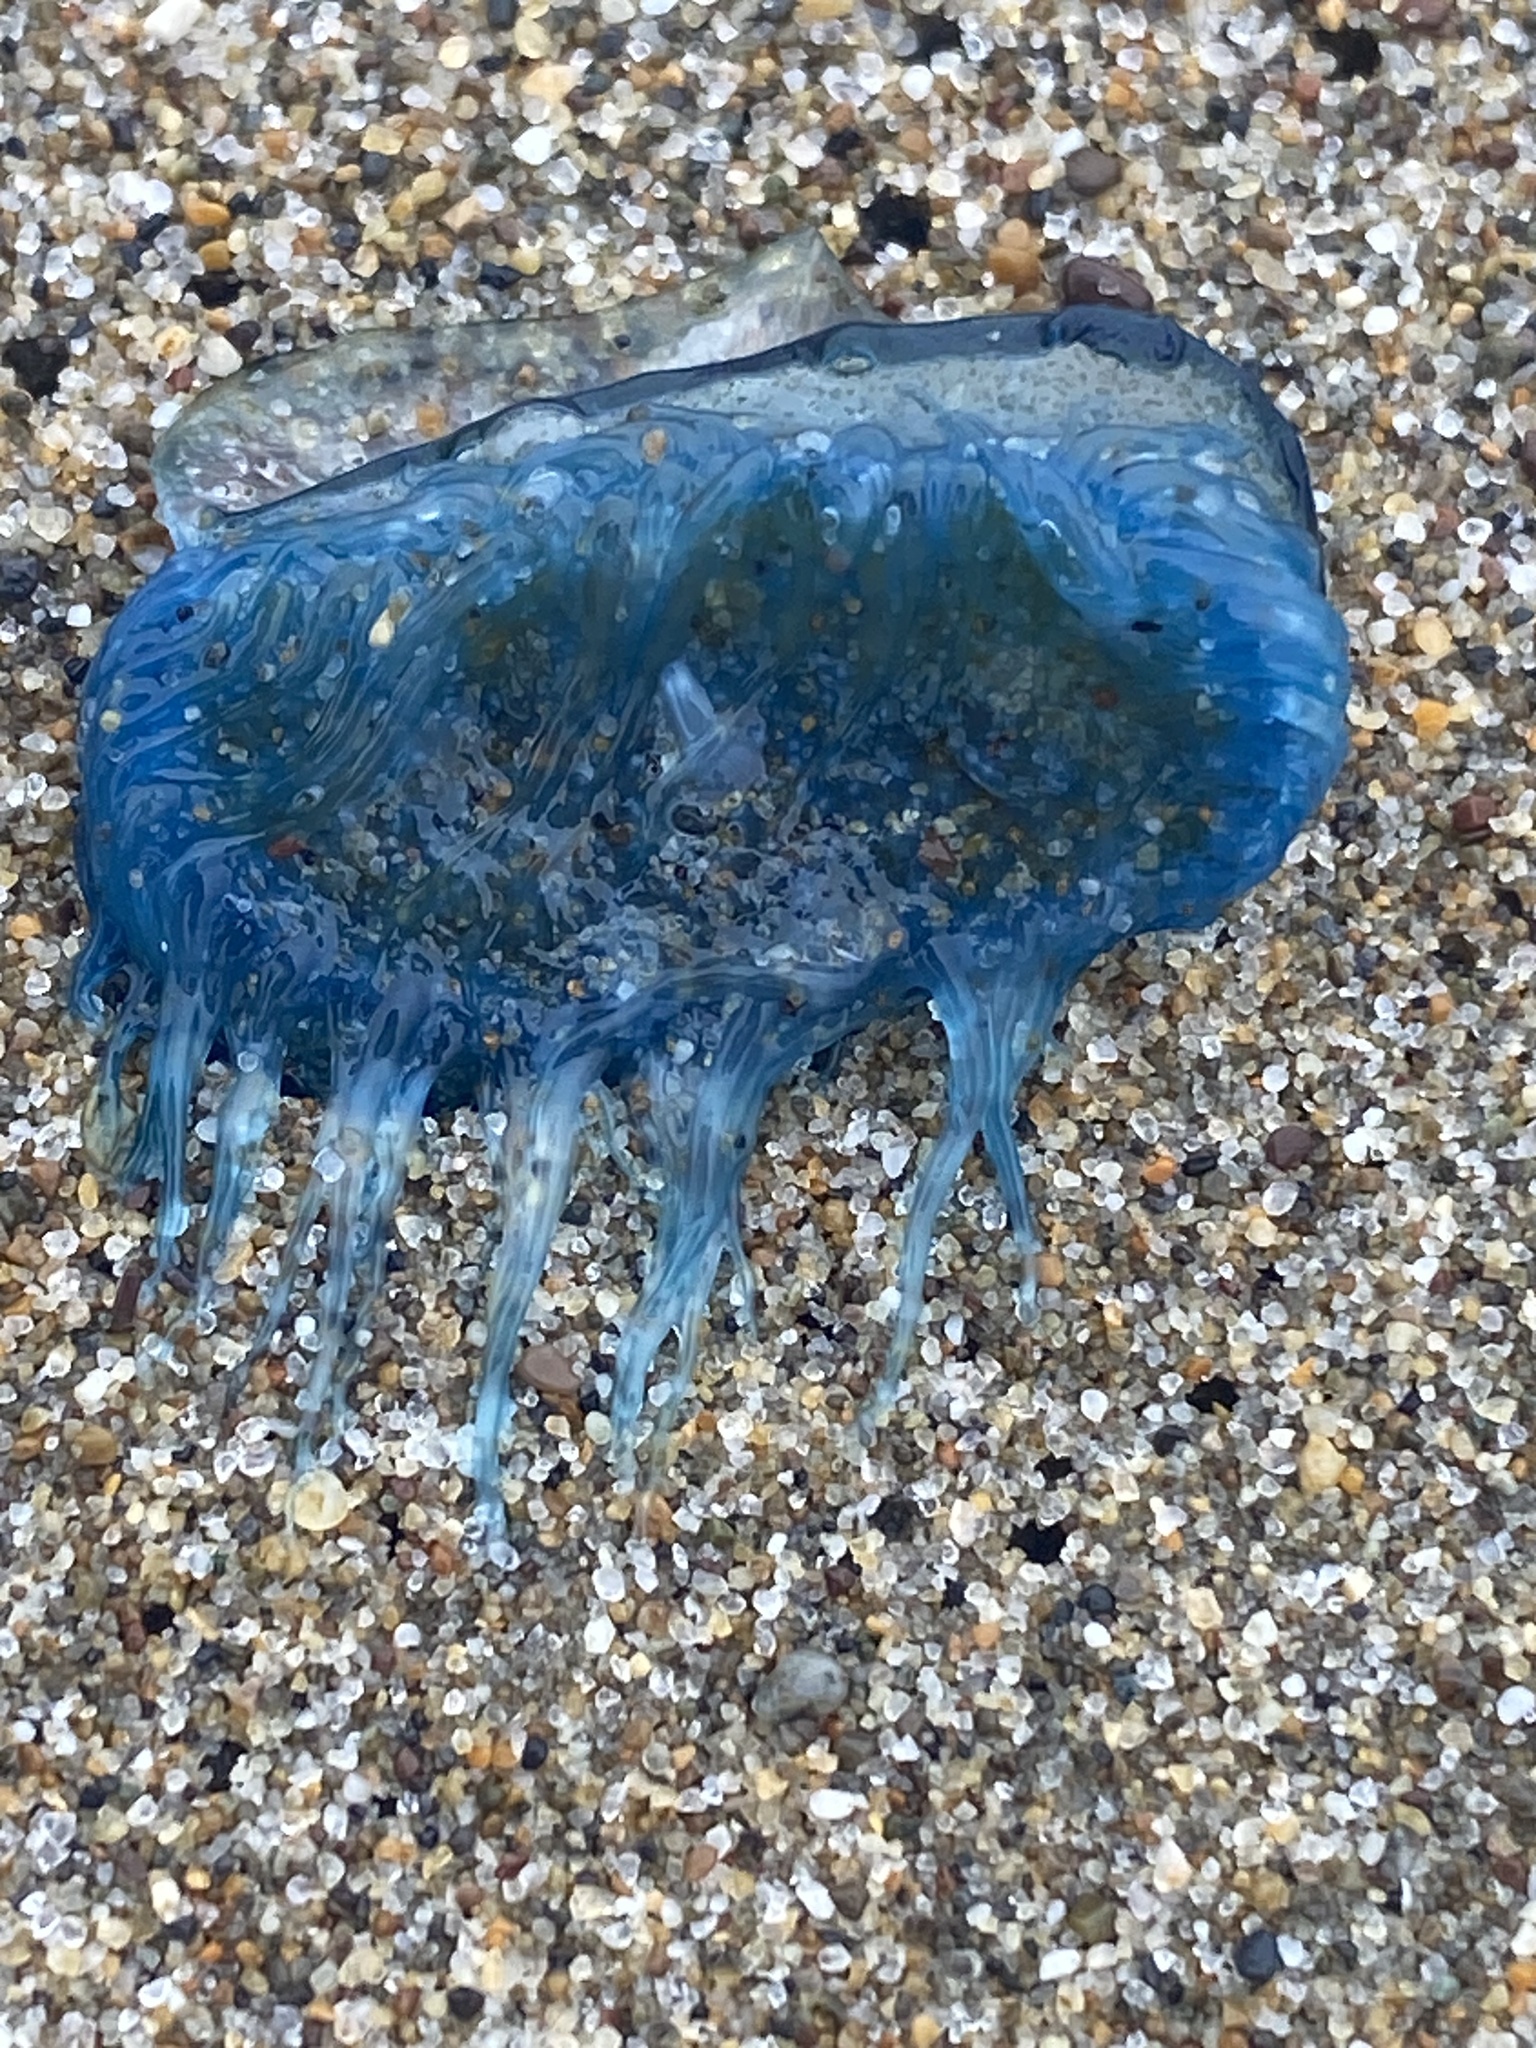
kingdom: Animalia
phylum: Cnidaria
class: Hydrozoa
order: Anthoathecata
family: Porpitidae
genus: Velella
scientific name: Velella velella
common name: By-the-wind-sailor
